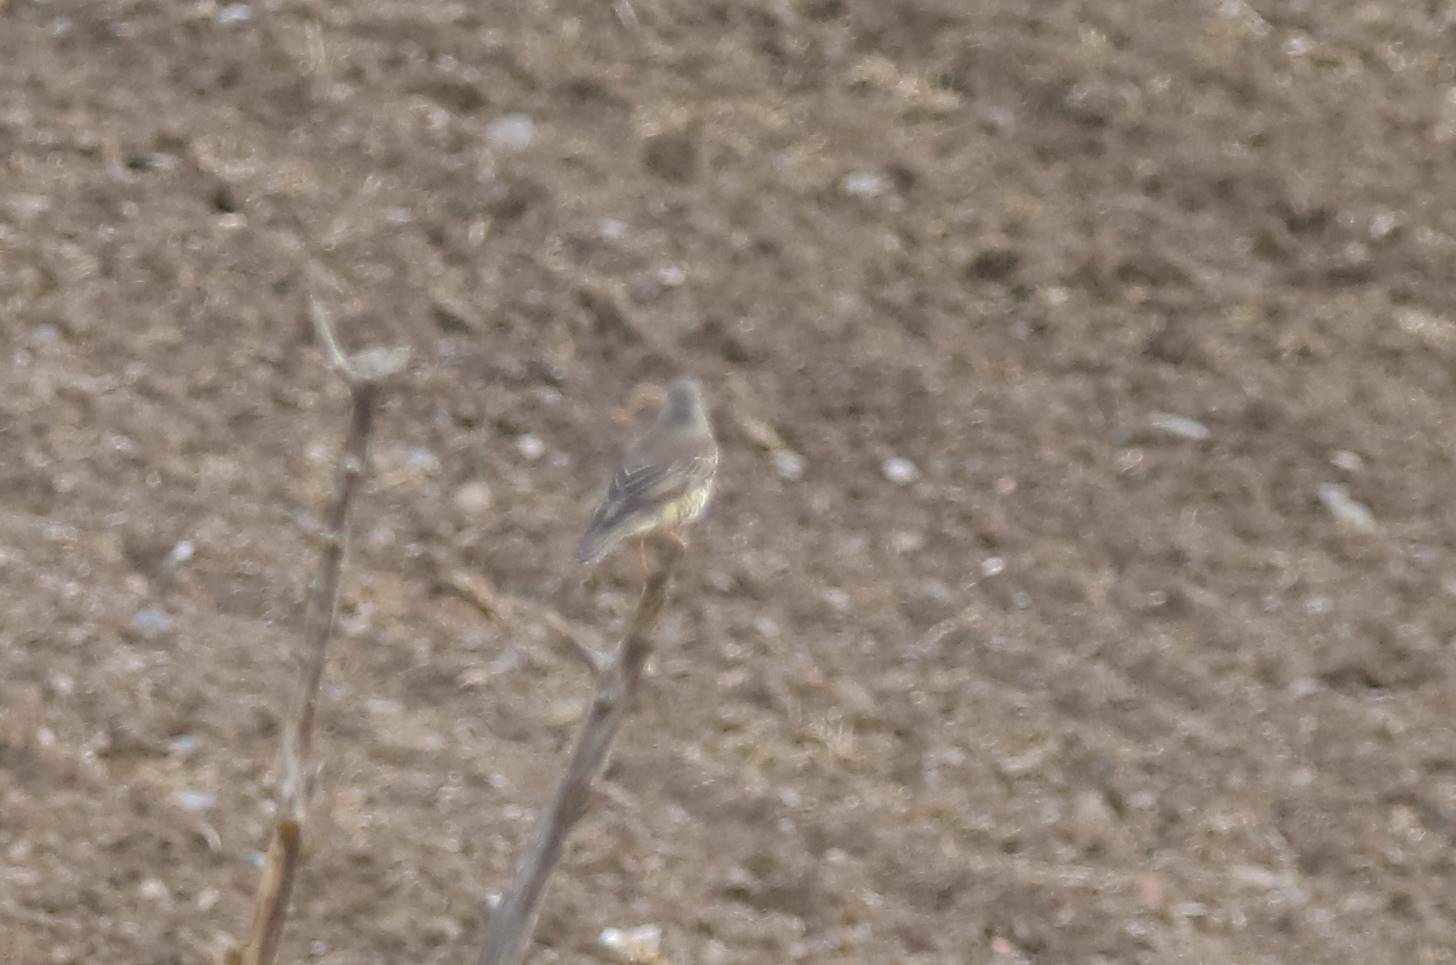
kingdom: Animalia
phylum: Chordata
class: Aves
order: Passeriformes
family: Turdidae
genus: Turdus
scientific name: Turdus viscivorus
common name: Mistle thrush
